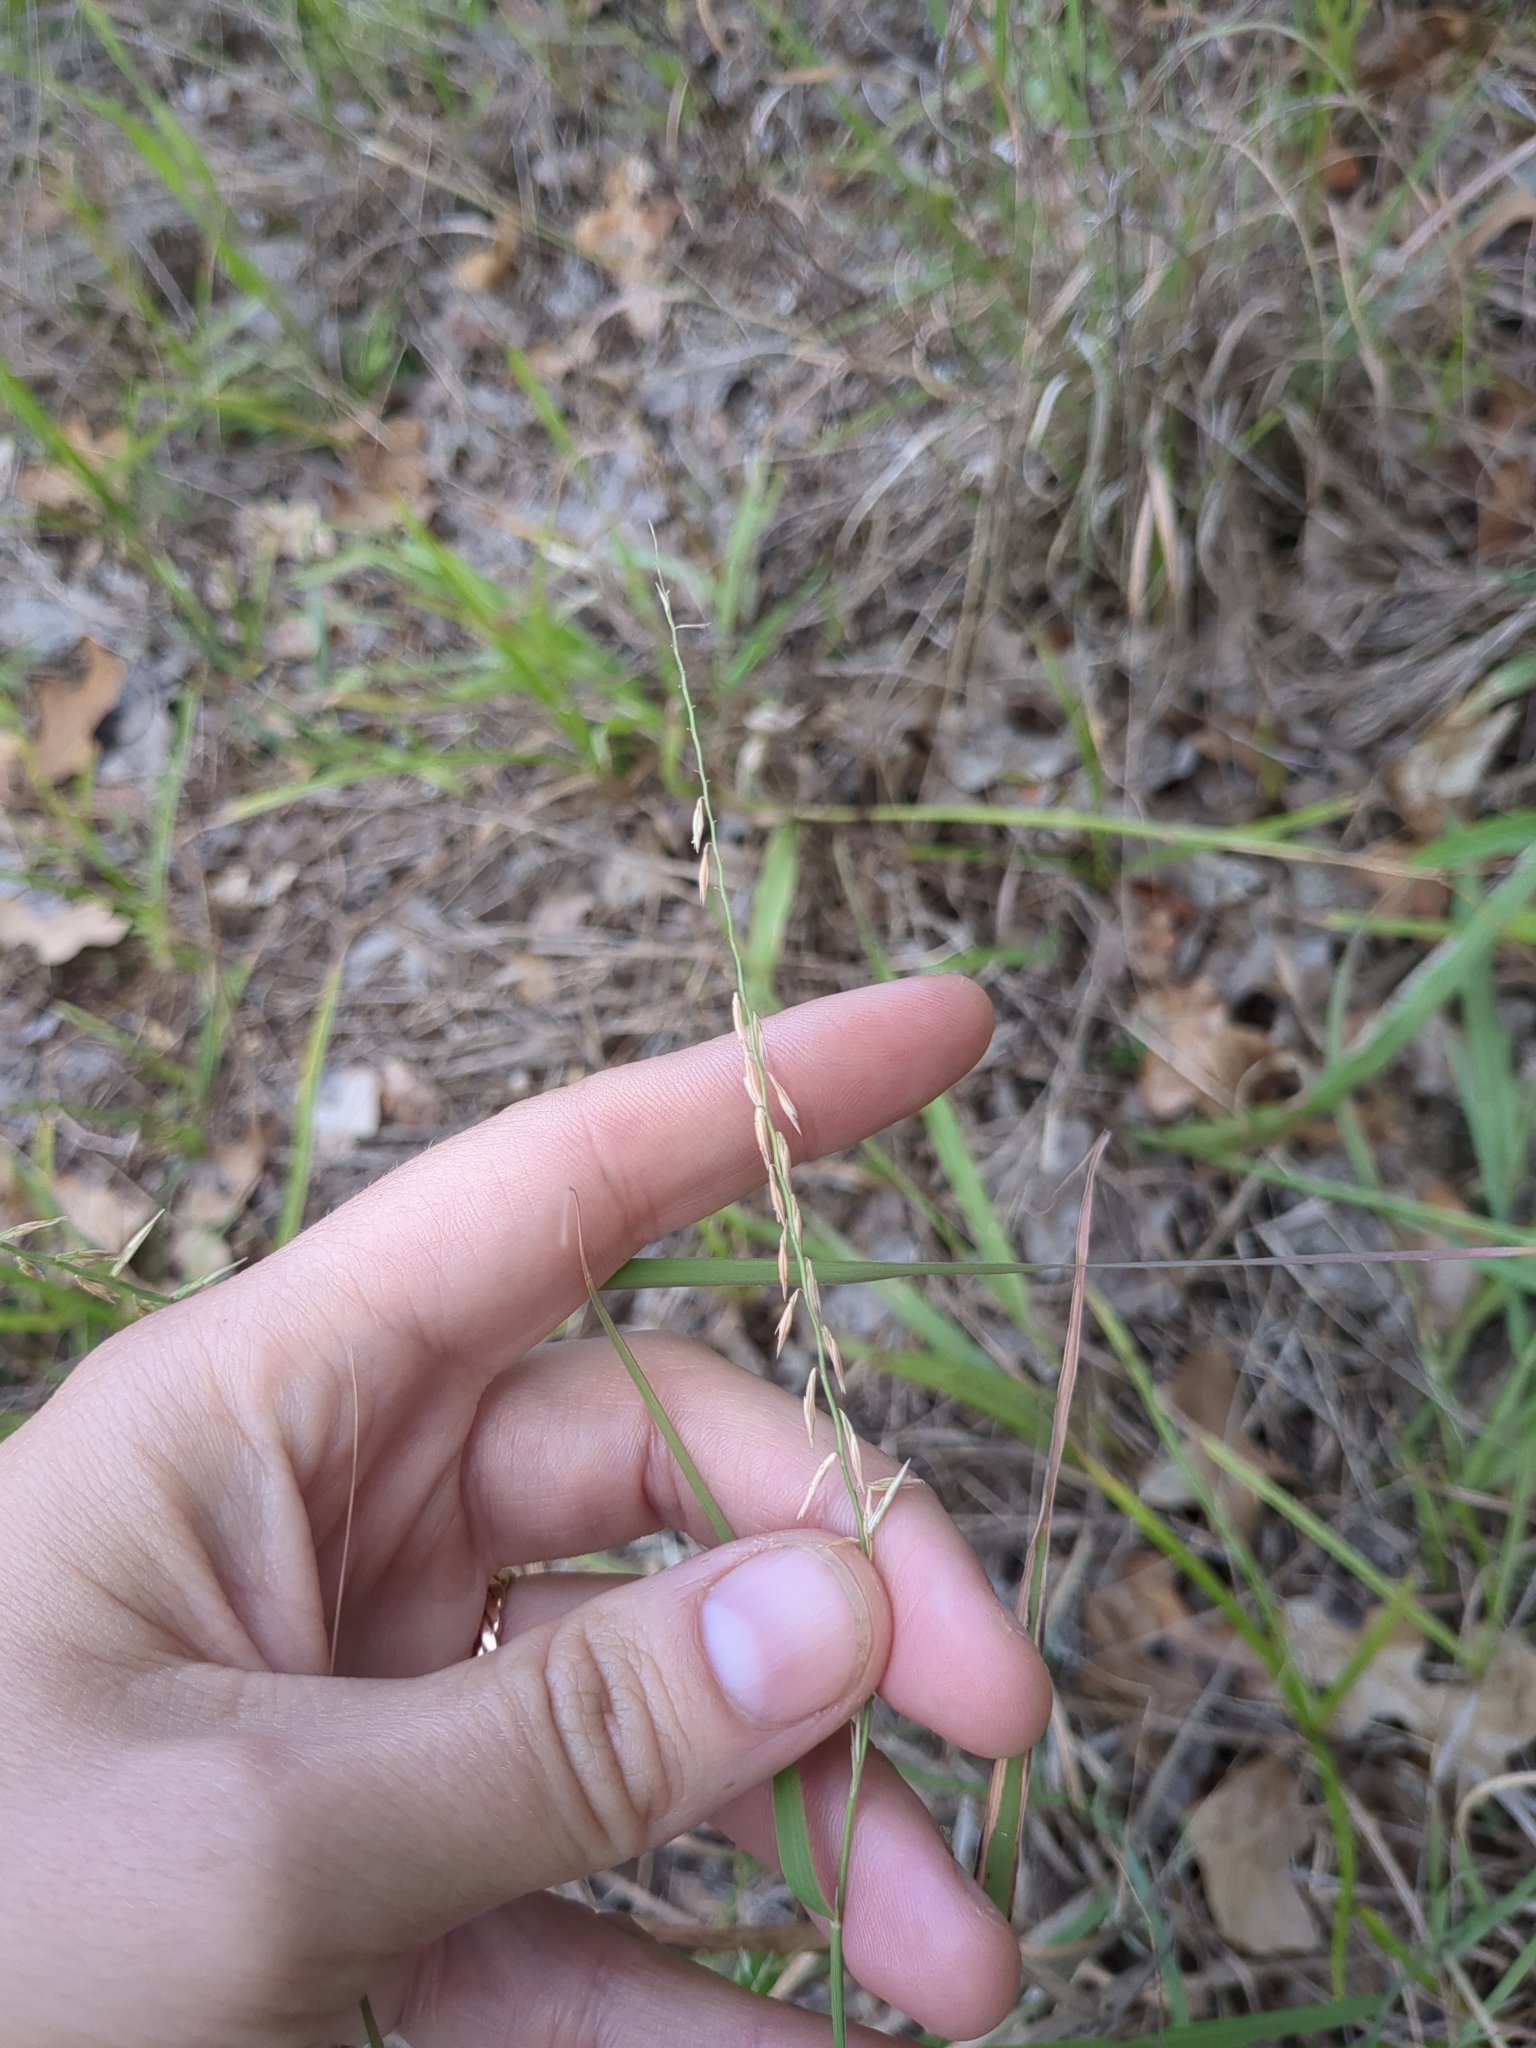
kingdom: Plantae
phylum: Tracheophyta
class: Liliopsida
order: Poales
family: Poaceae
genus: Bouteloua
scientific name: Bouteloua curtipendula
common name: Side-oats grama
